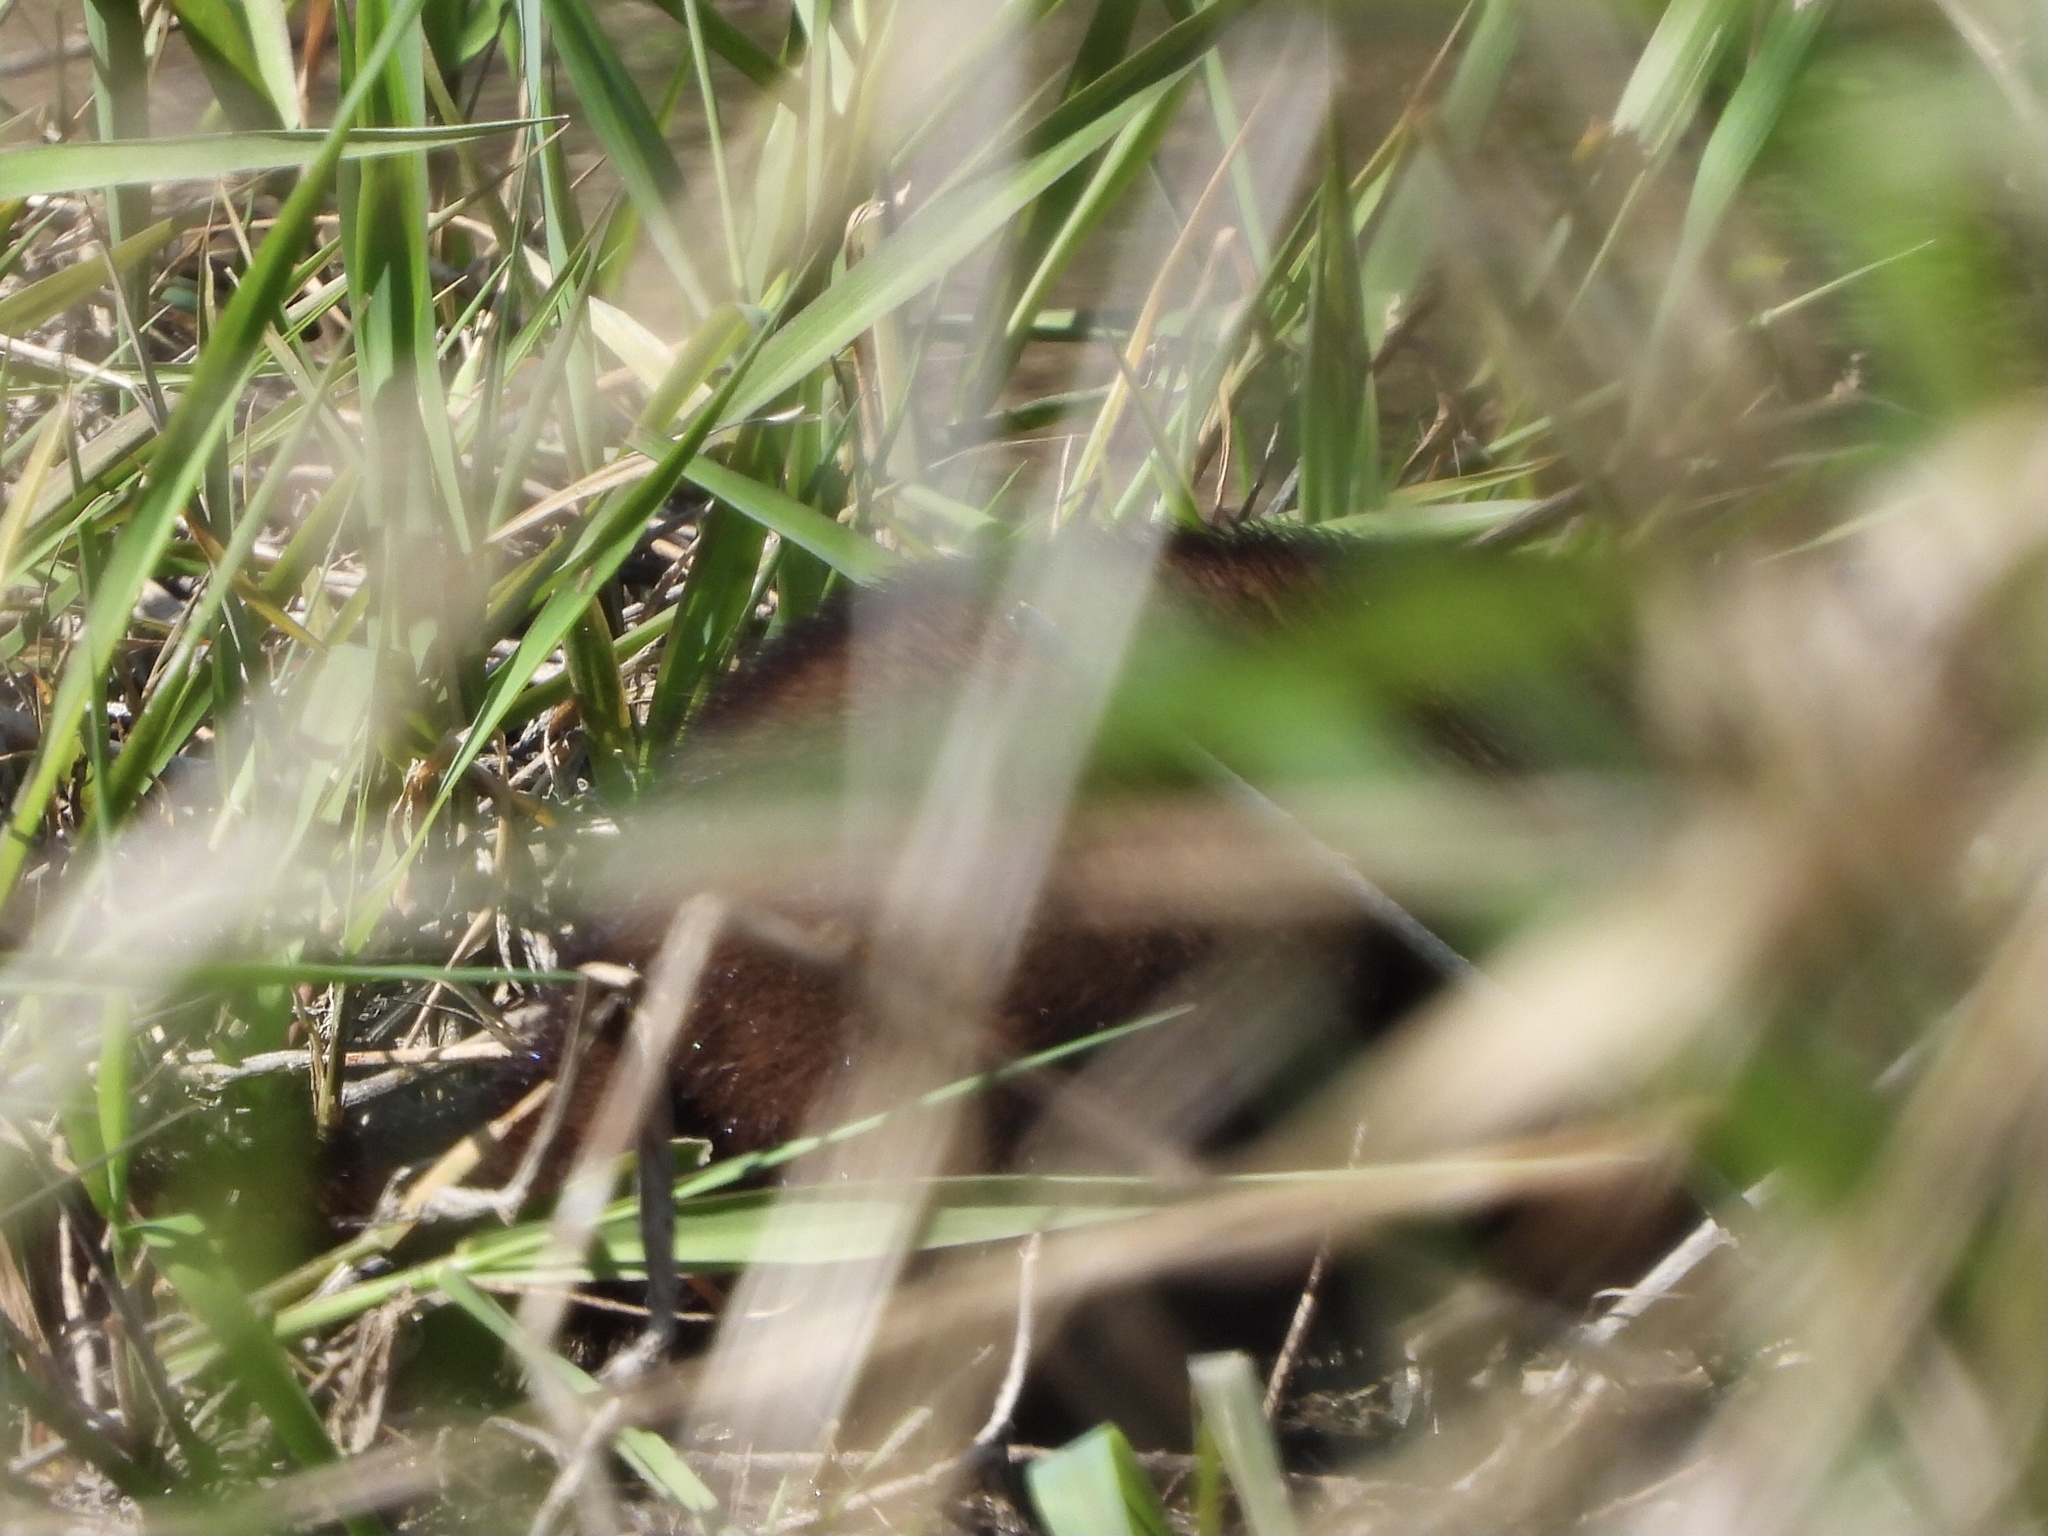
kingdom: Animalia
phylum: Chordata
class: Mammalia
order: Carnivora
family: Mustelidae
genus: Mustela
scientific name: Mustela
